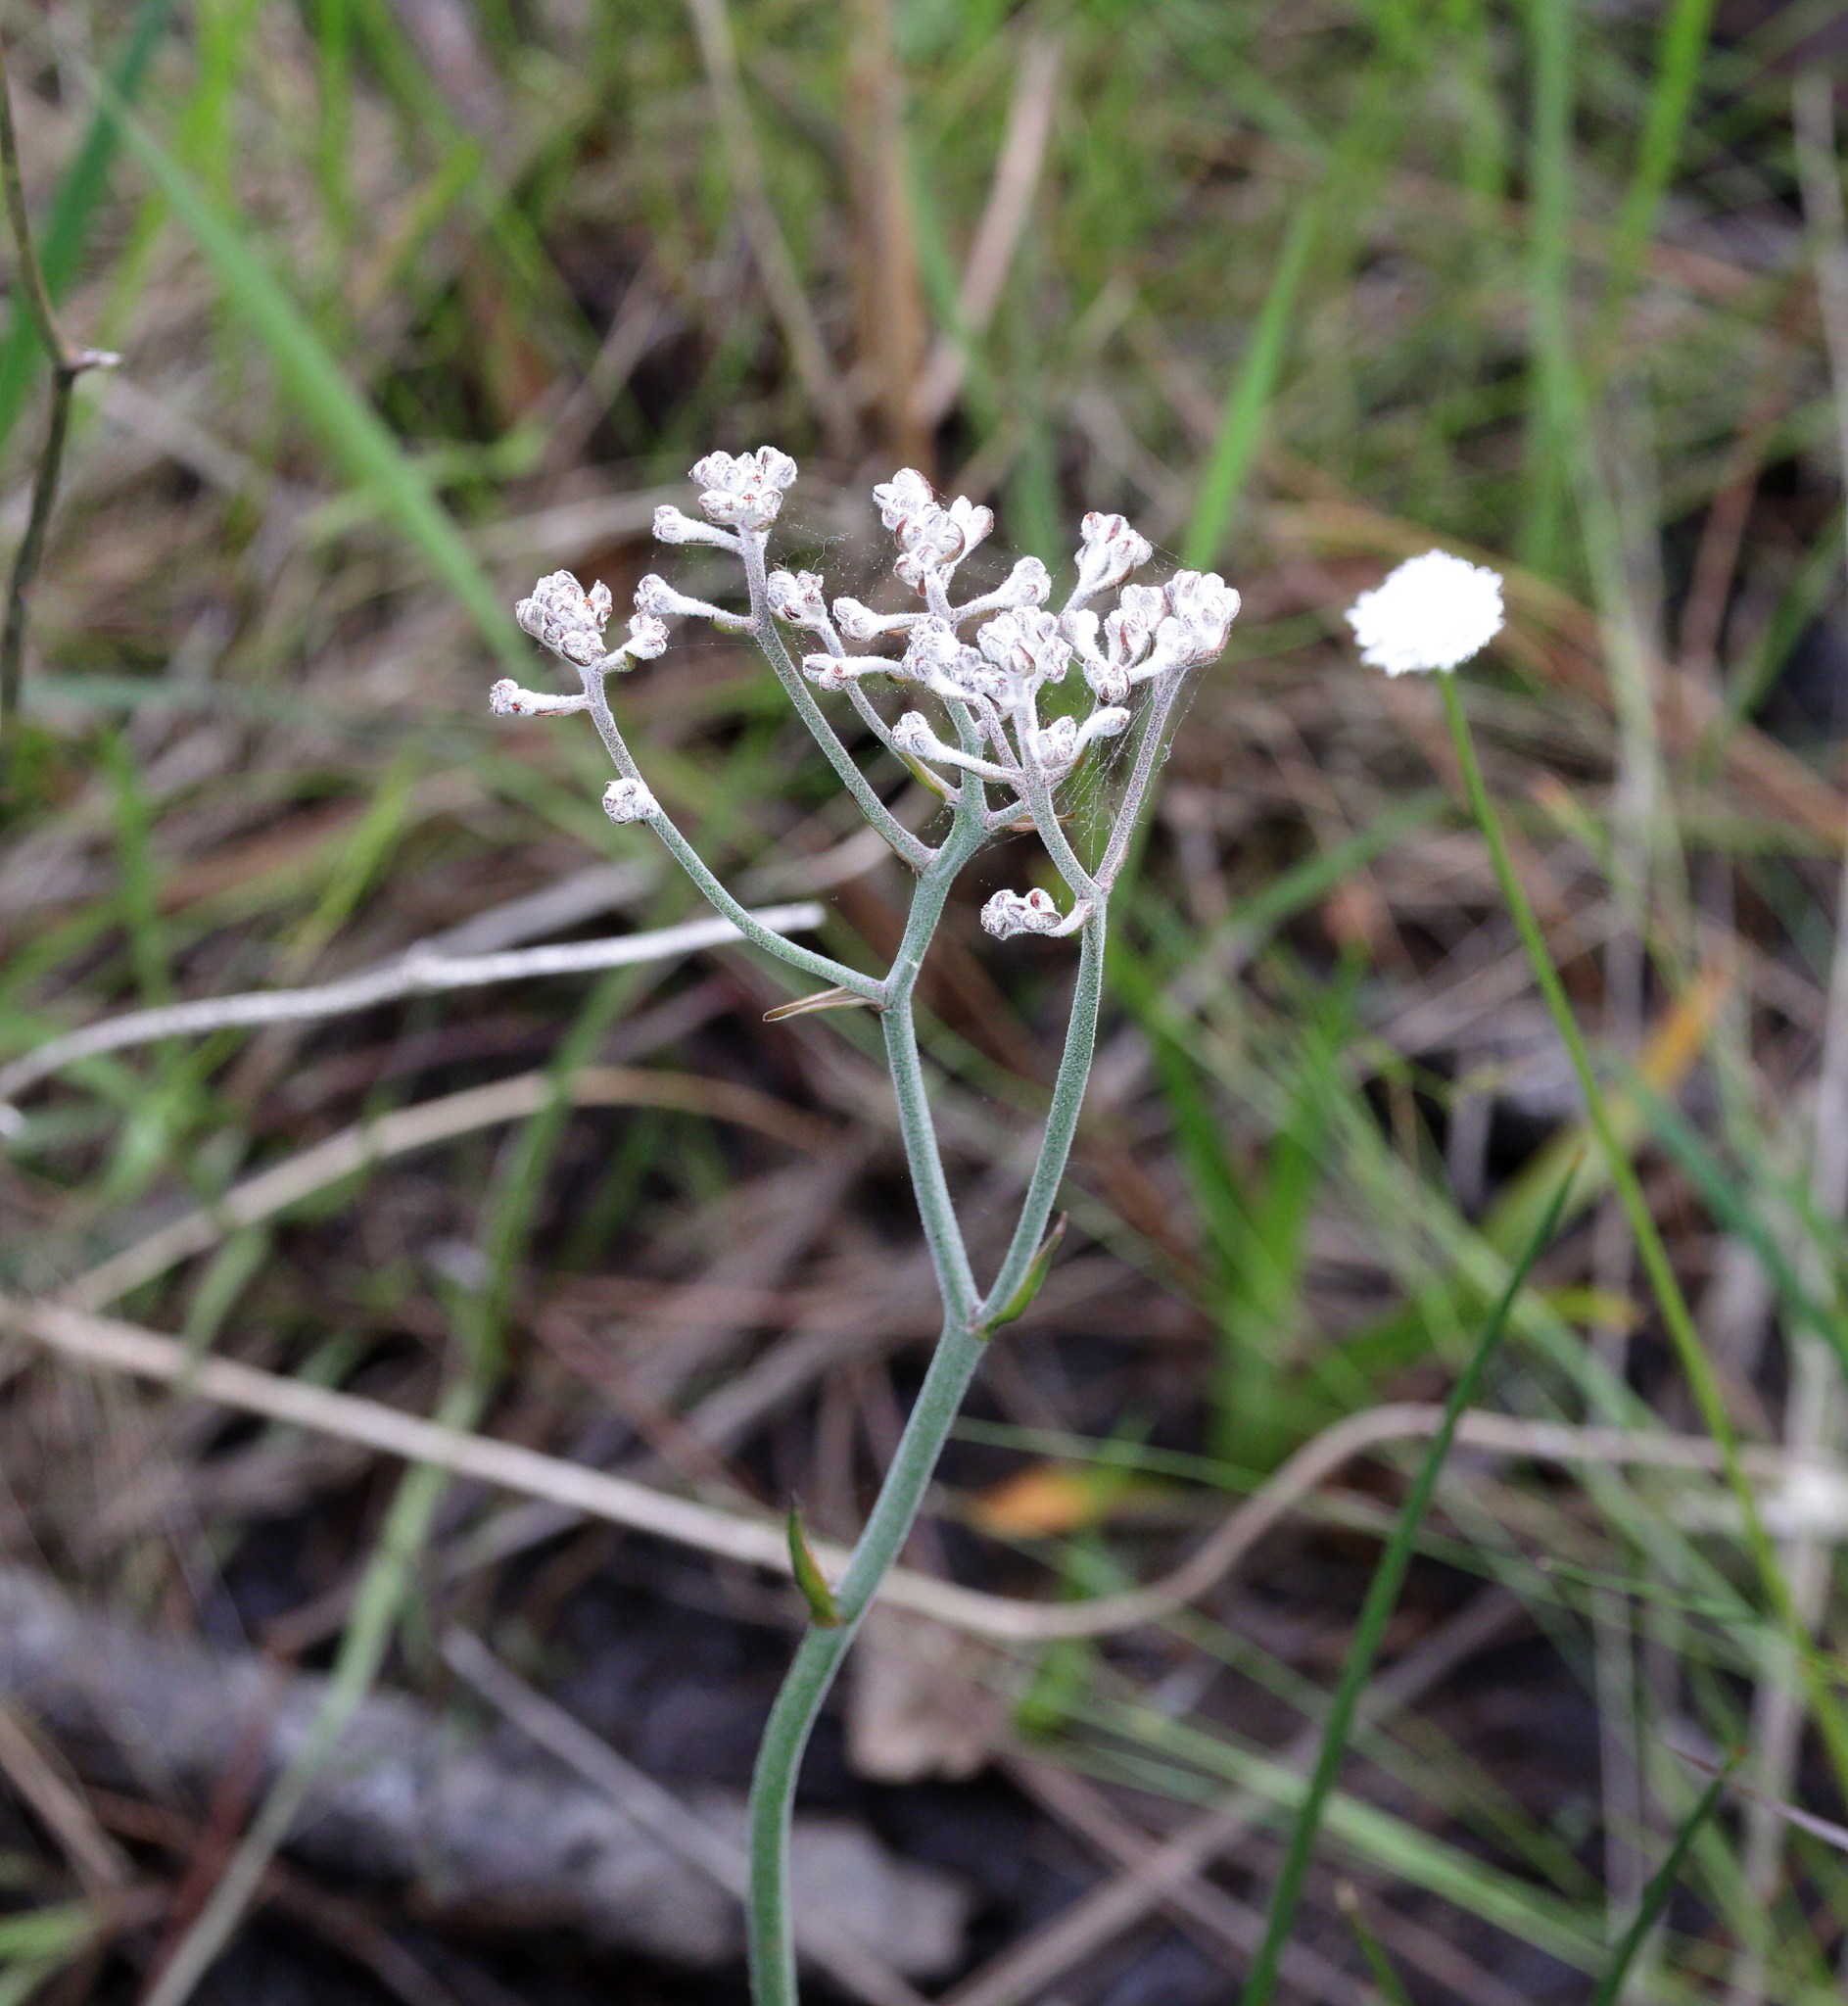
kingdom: Plantae
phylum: Tracheophyta
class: Liliopsida
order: Dioscoreales
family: Nartheciaceae
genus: Lophiola
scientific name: Lophiola aurea
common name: Golden-crest
